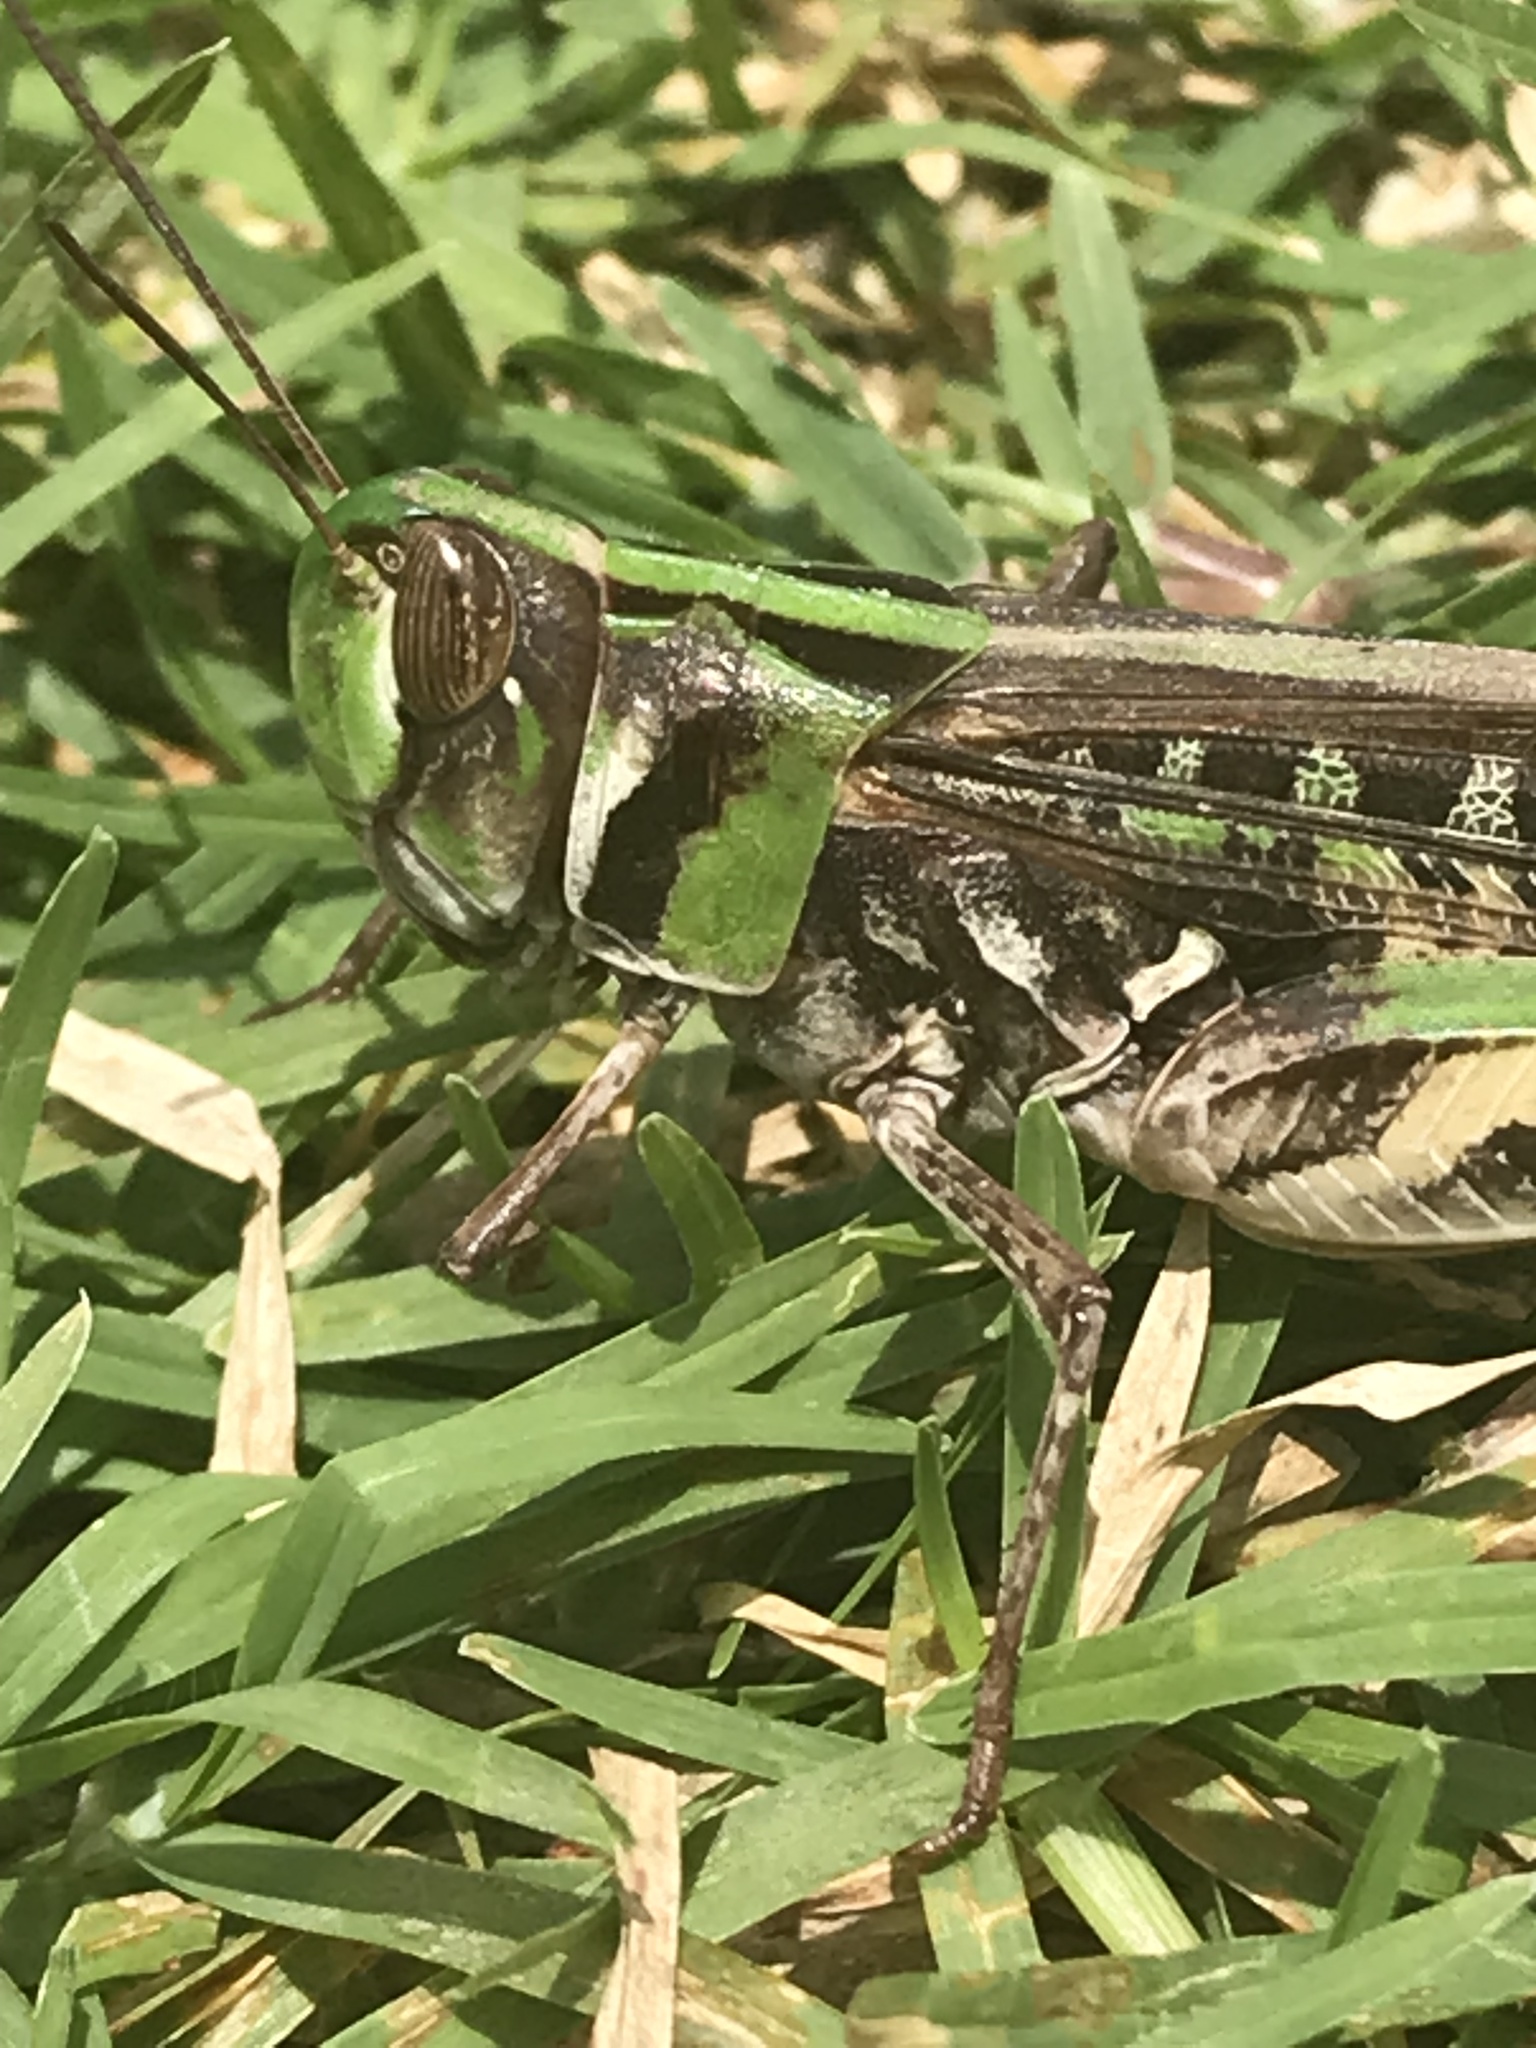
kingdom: Animalia
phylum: Arthropoda
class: Insecta
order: Orthoptera
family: Acrididae
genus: Rhammatocerus
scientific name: Rhammatocerus viatorius
